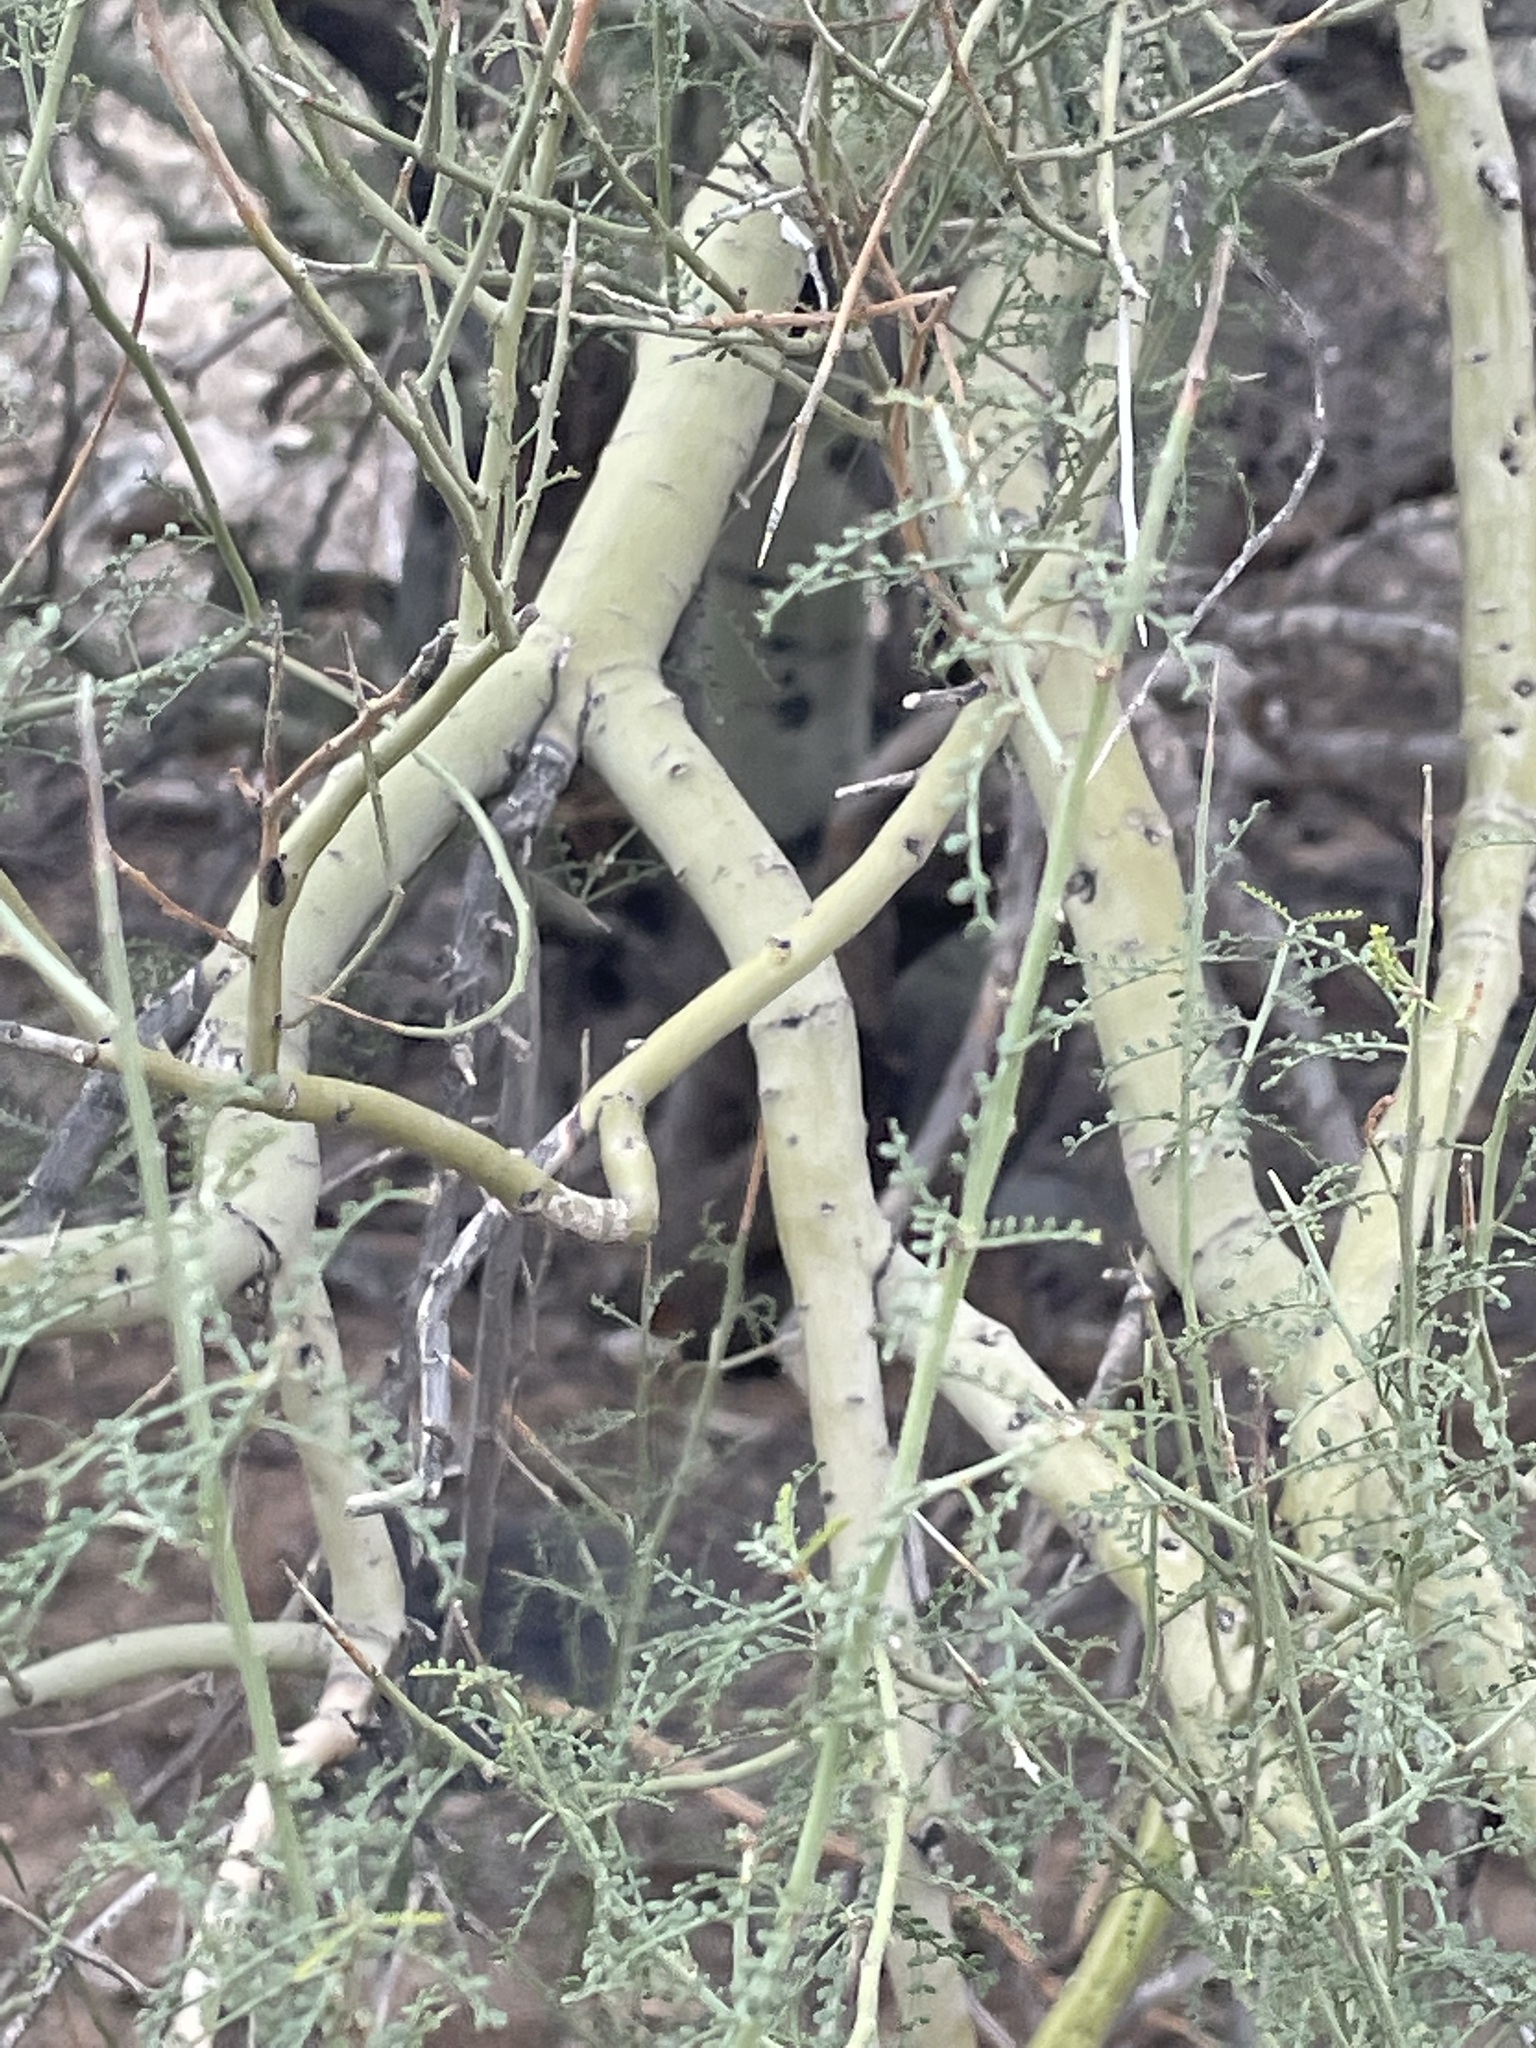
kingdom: Plantae
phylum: Tracheophyta
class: Magnoliopsida
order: Fabales
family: Fabaceae
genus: Parkinsonia
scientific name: Parkinsonia microphylla
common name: Yellow paloverde
